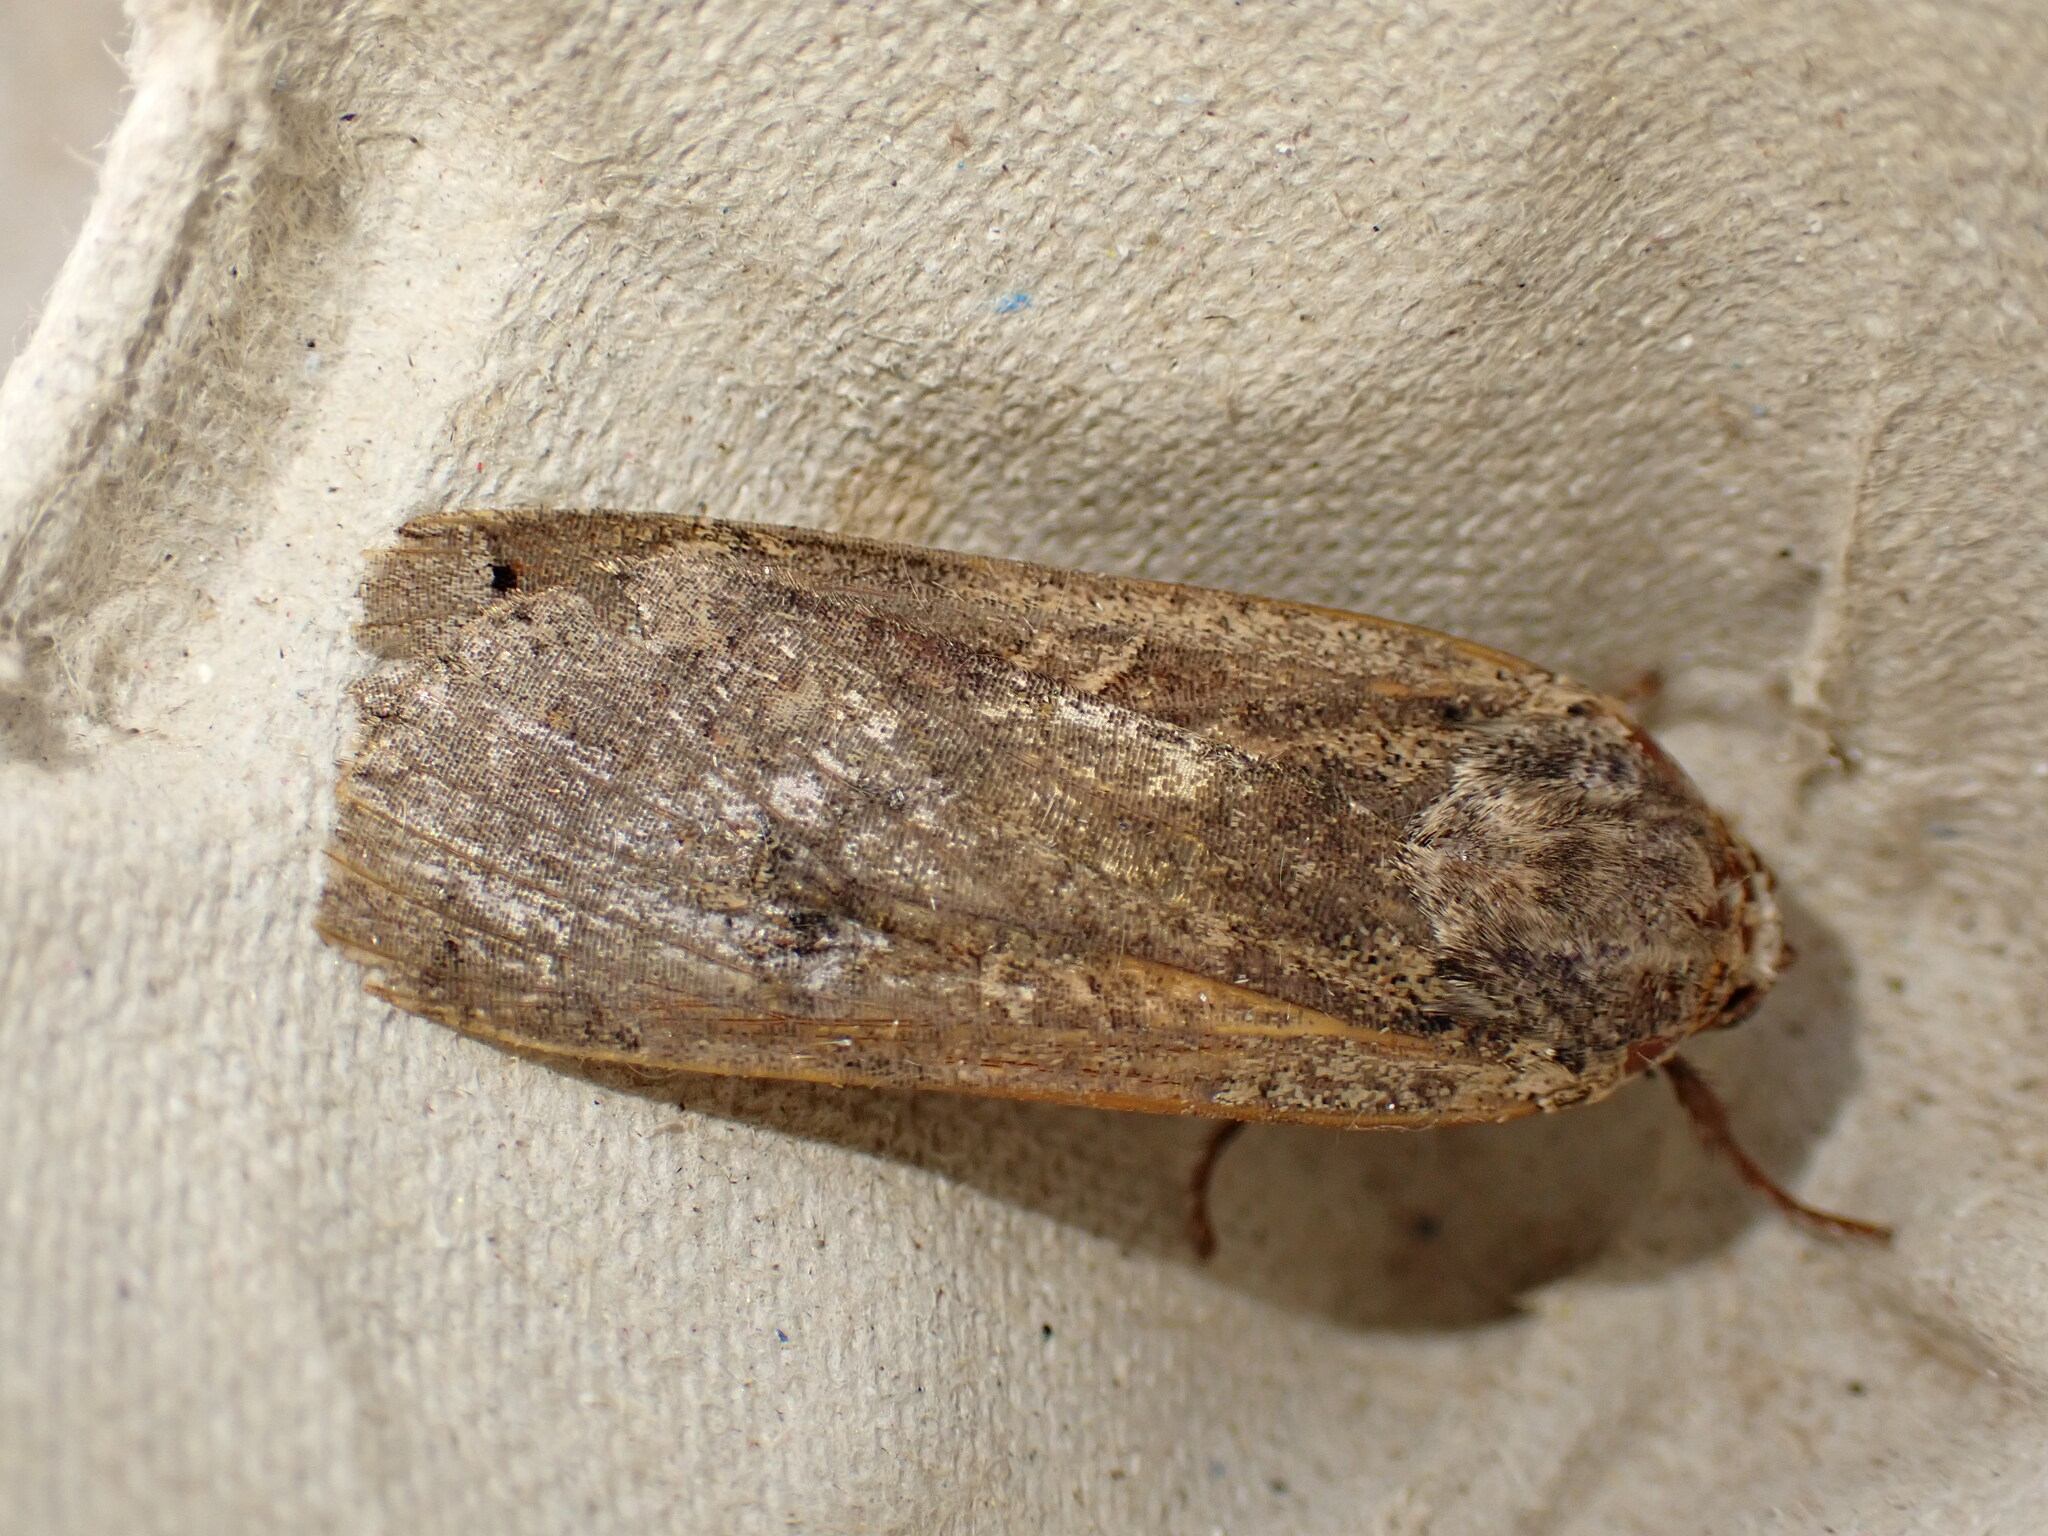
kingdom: Animalia
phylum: Arthropoda
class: Insecta
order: Lepidoptera
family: Noctuidae
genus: Noctua
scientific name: Noctua pronuba
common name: Large yellow underwing
